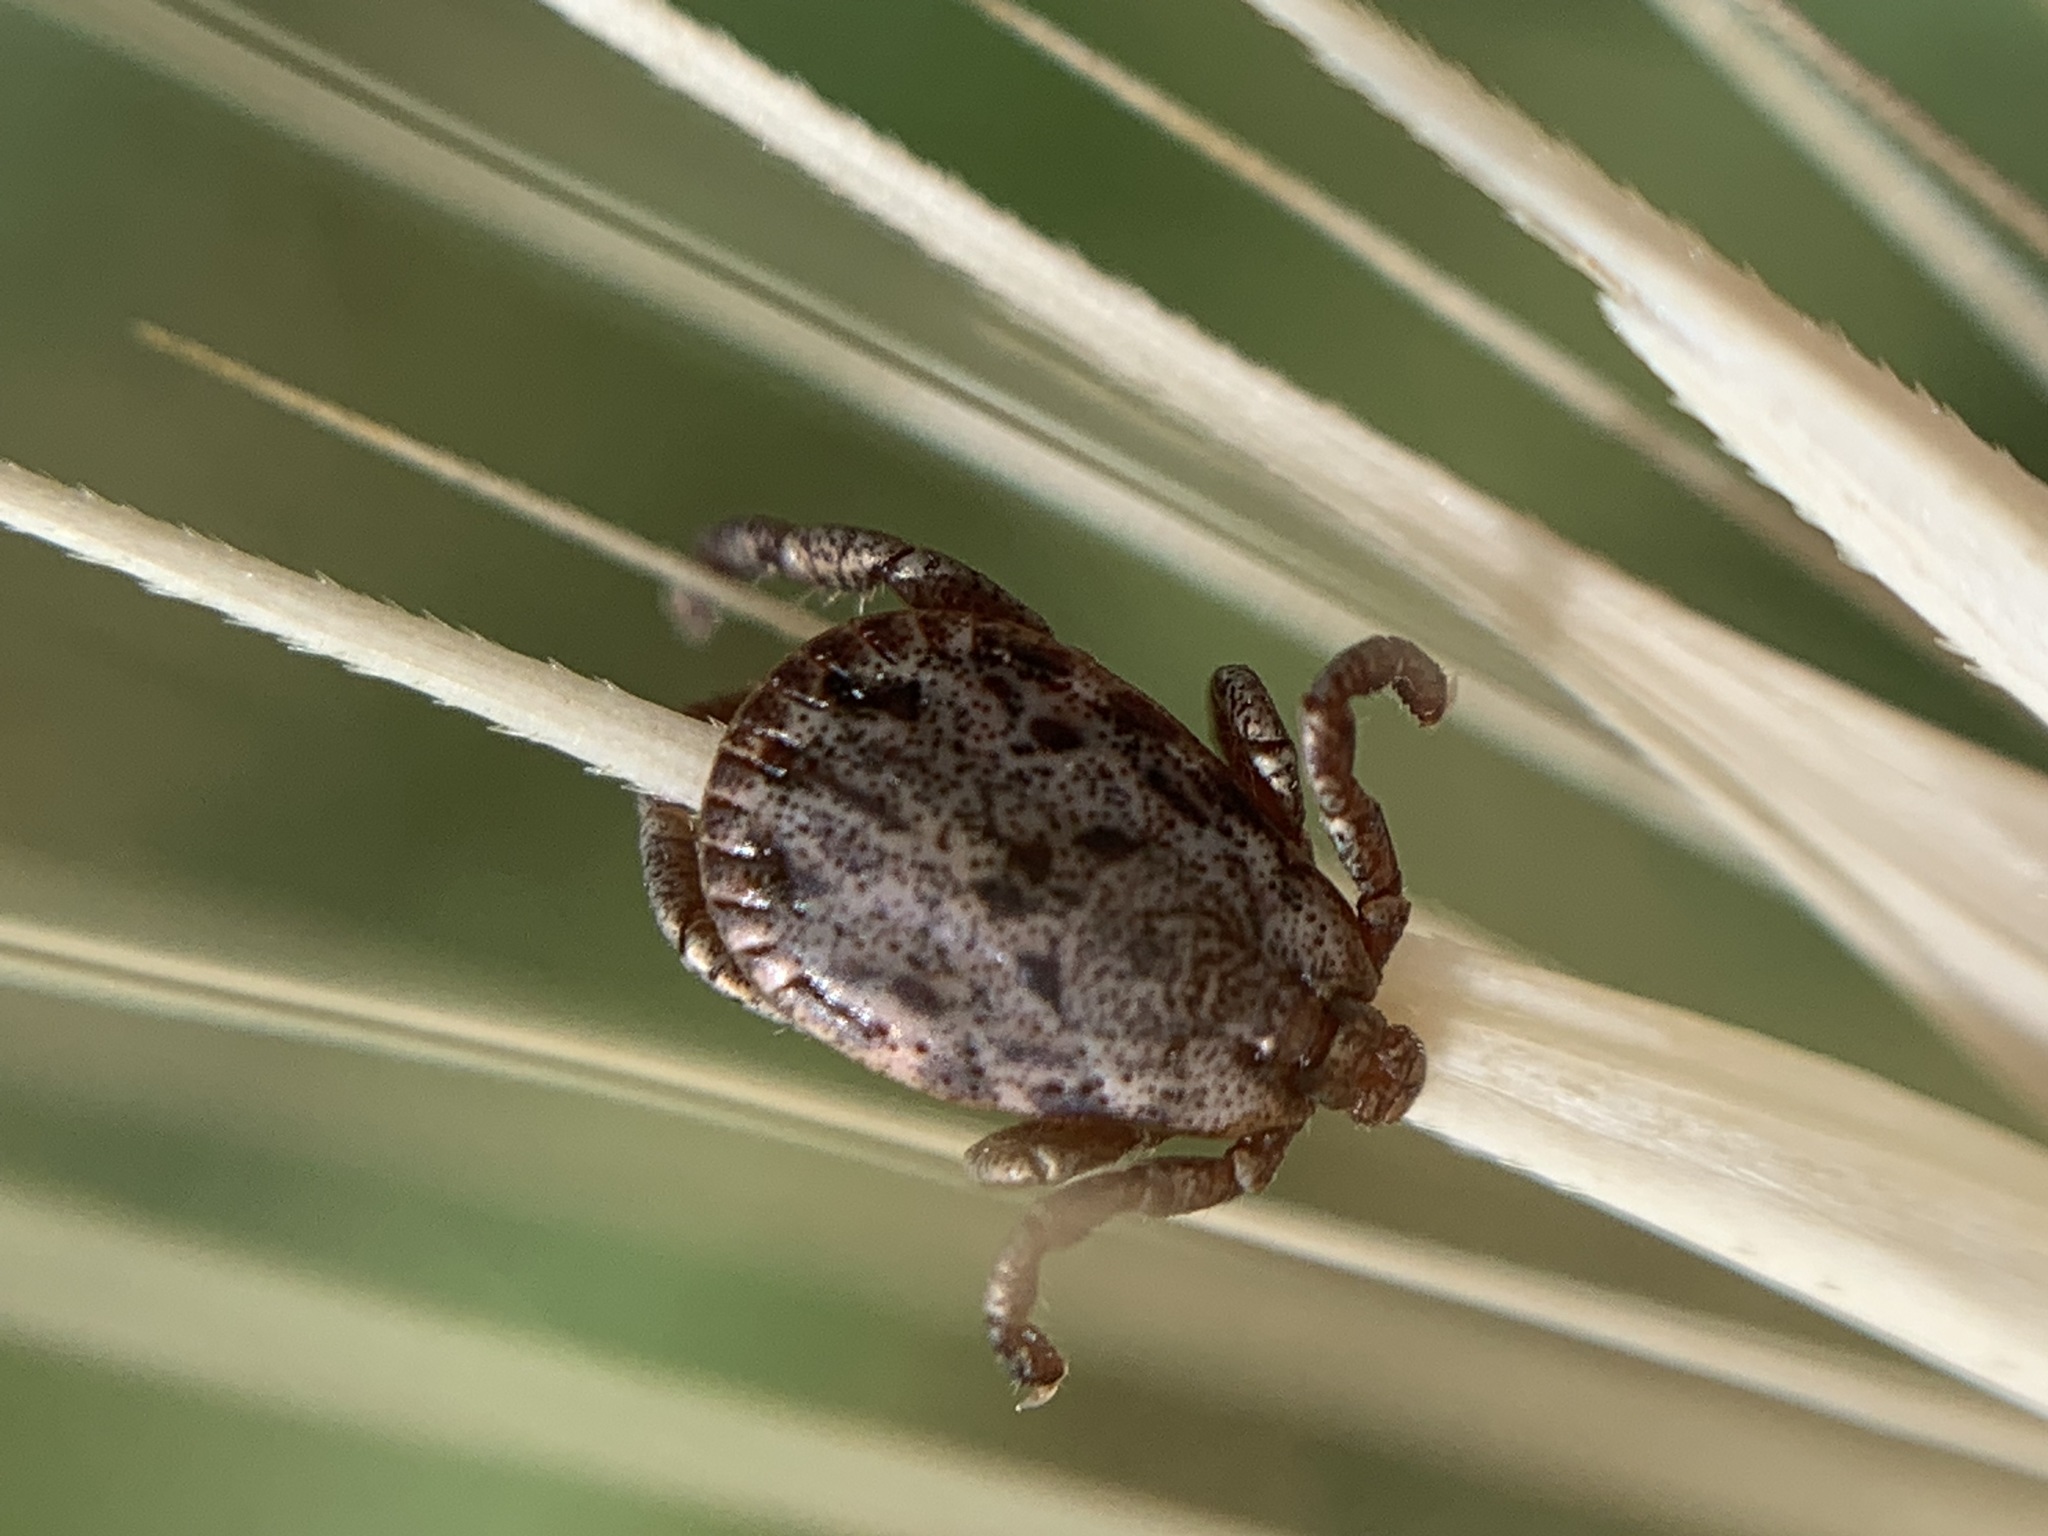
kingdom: Animalia
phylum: Arthropoda
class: Arachnida
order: Ixodida
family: Ixodidae
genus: Dermacentor
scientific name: Dermacentor occidentalis
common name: Net tick
